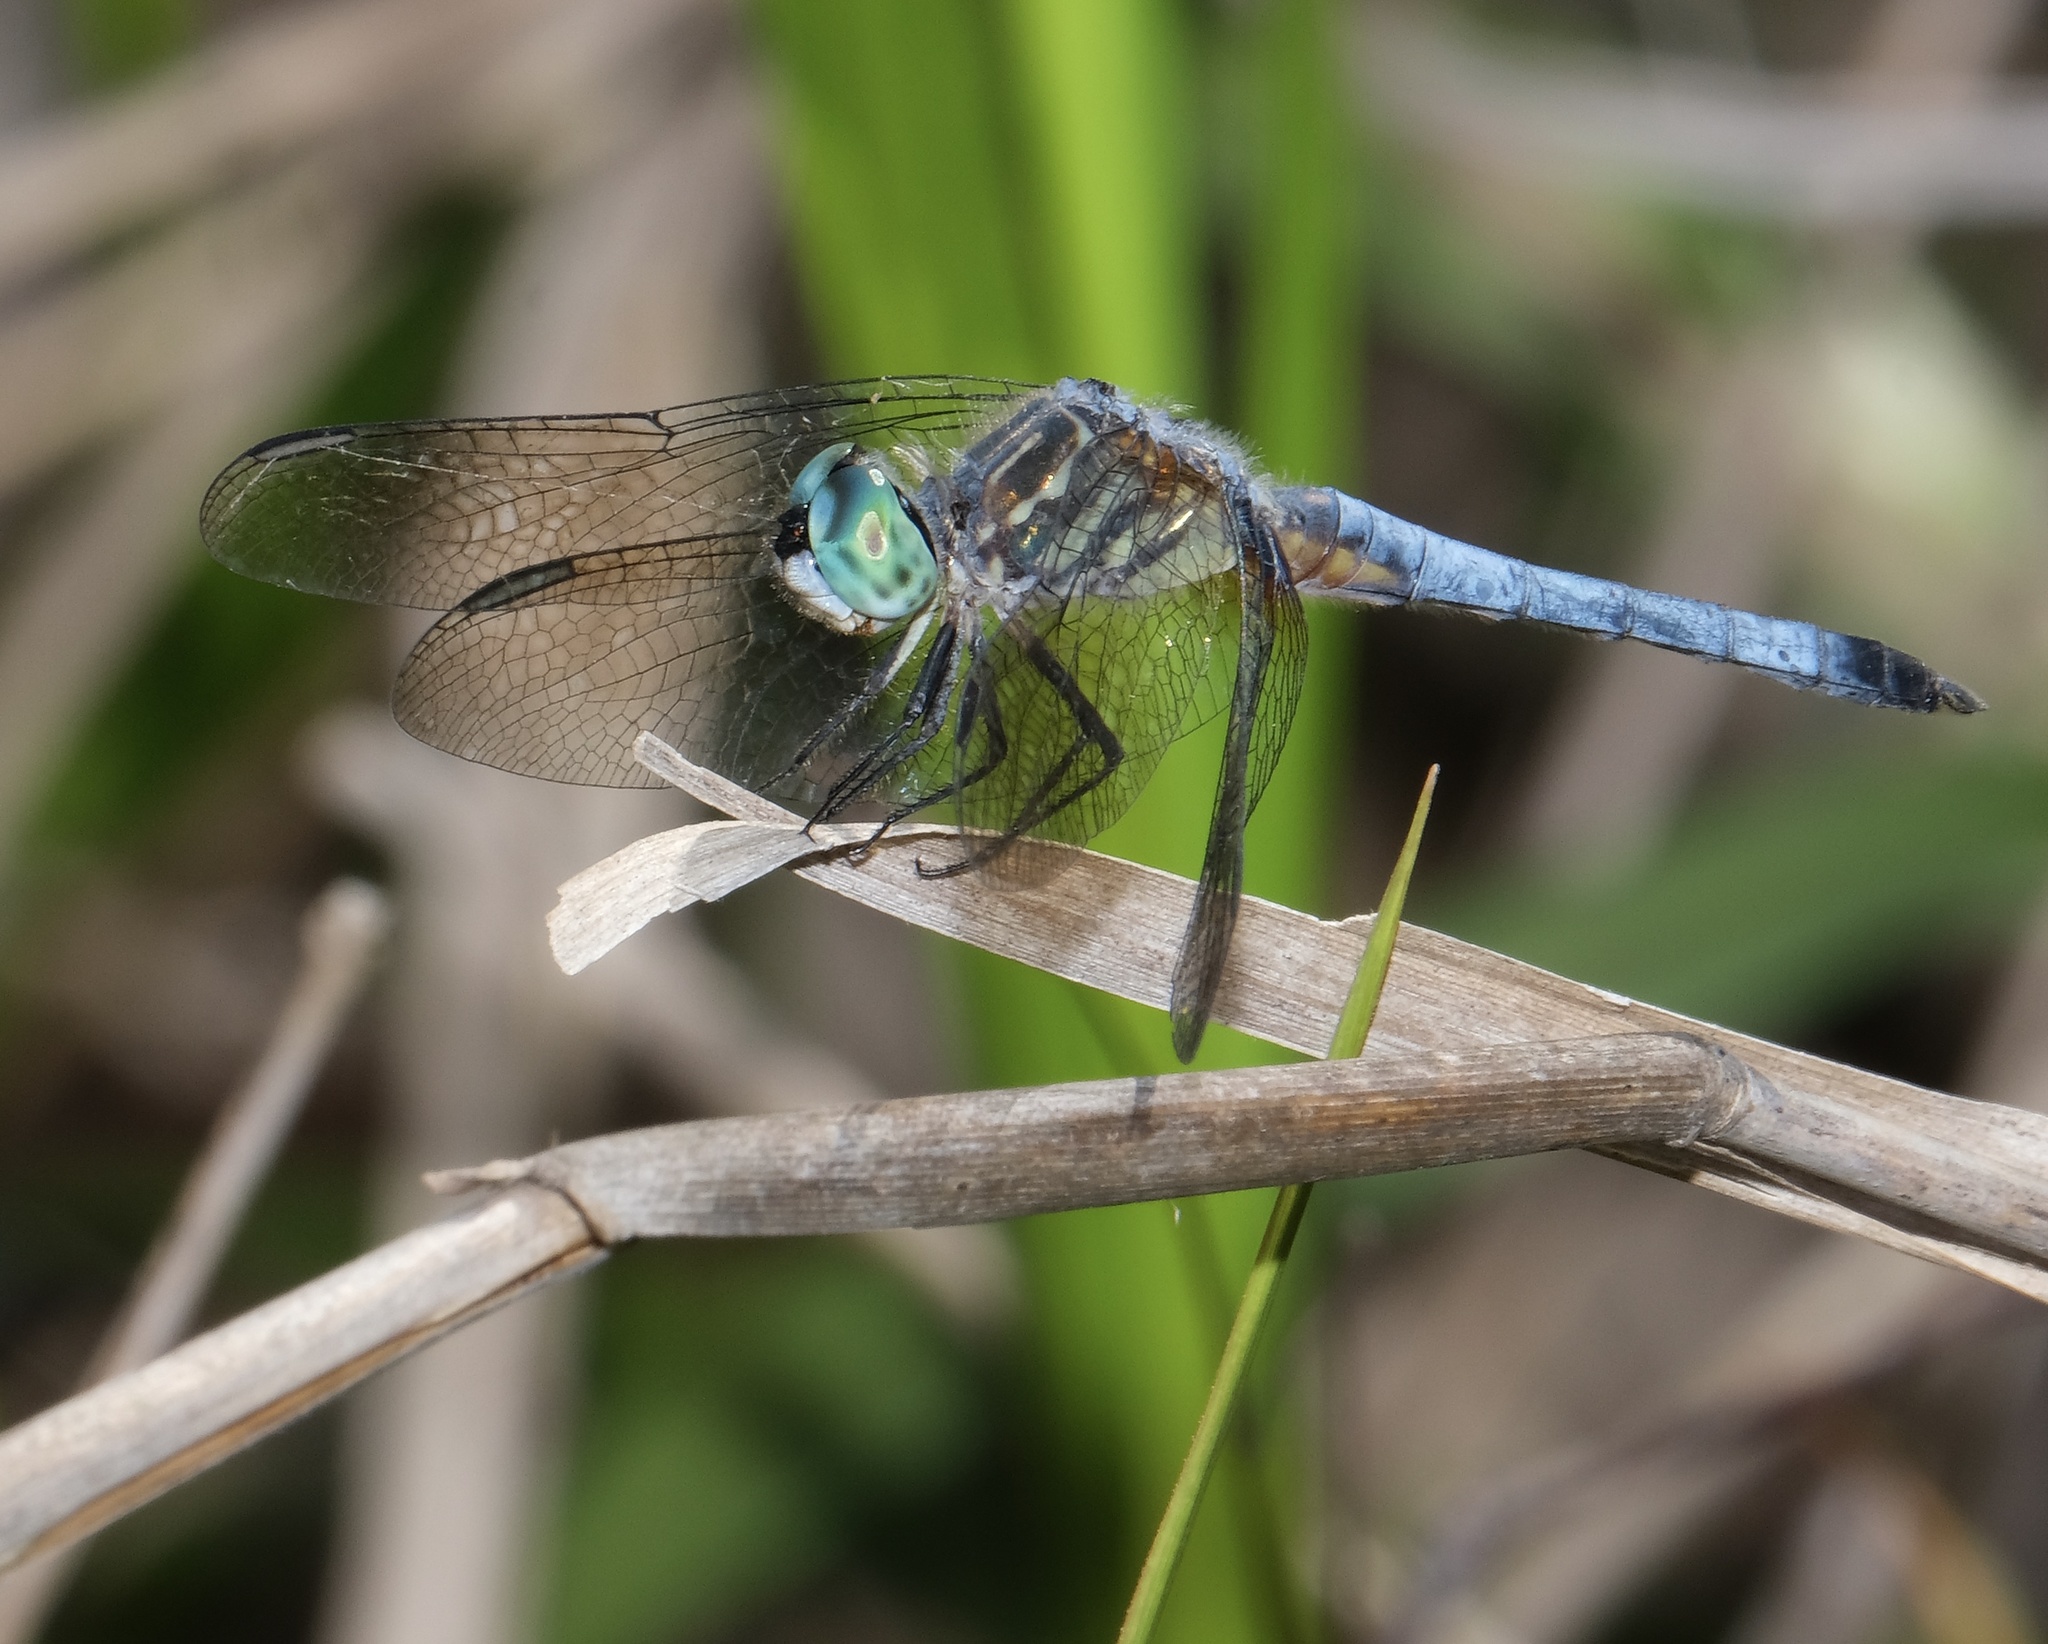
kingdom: Animalia
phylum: Arthropoda
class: Insecta
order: Odonata
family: Libellulidae
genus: Pachydiplax
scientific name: Pachydiplax longipennis
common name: Blue dasher
